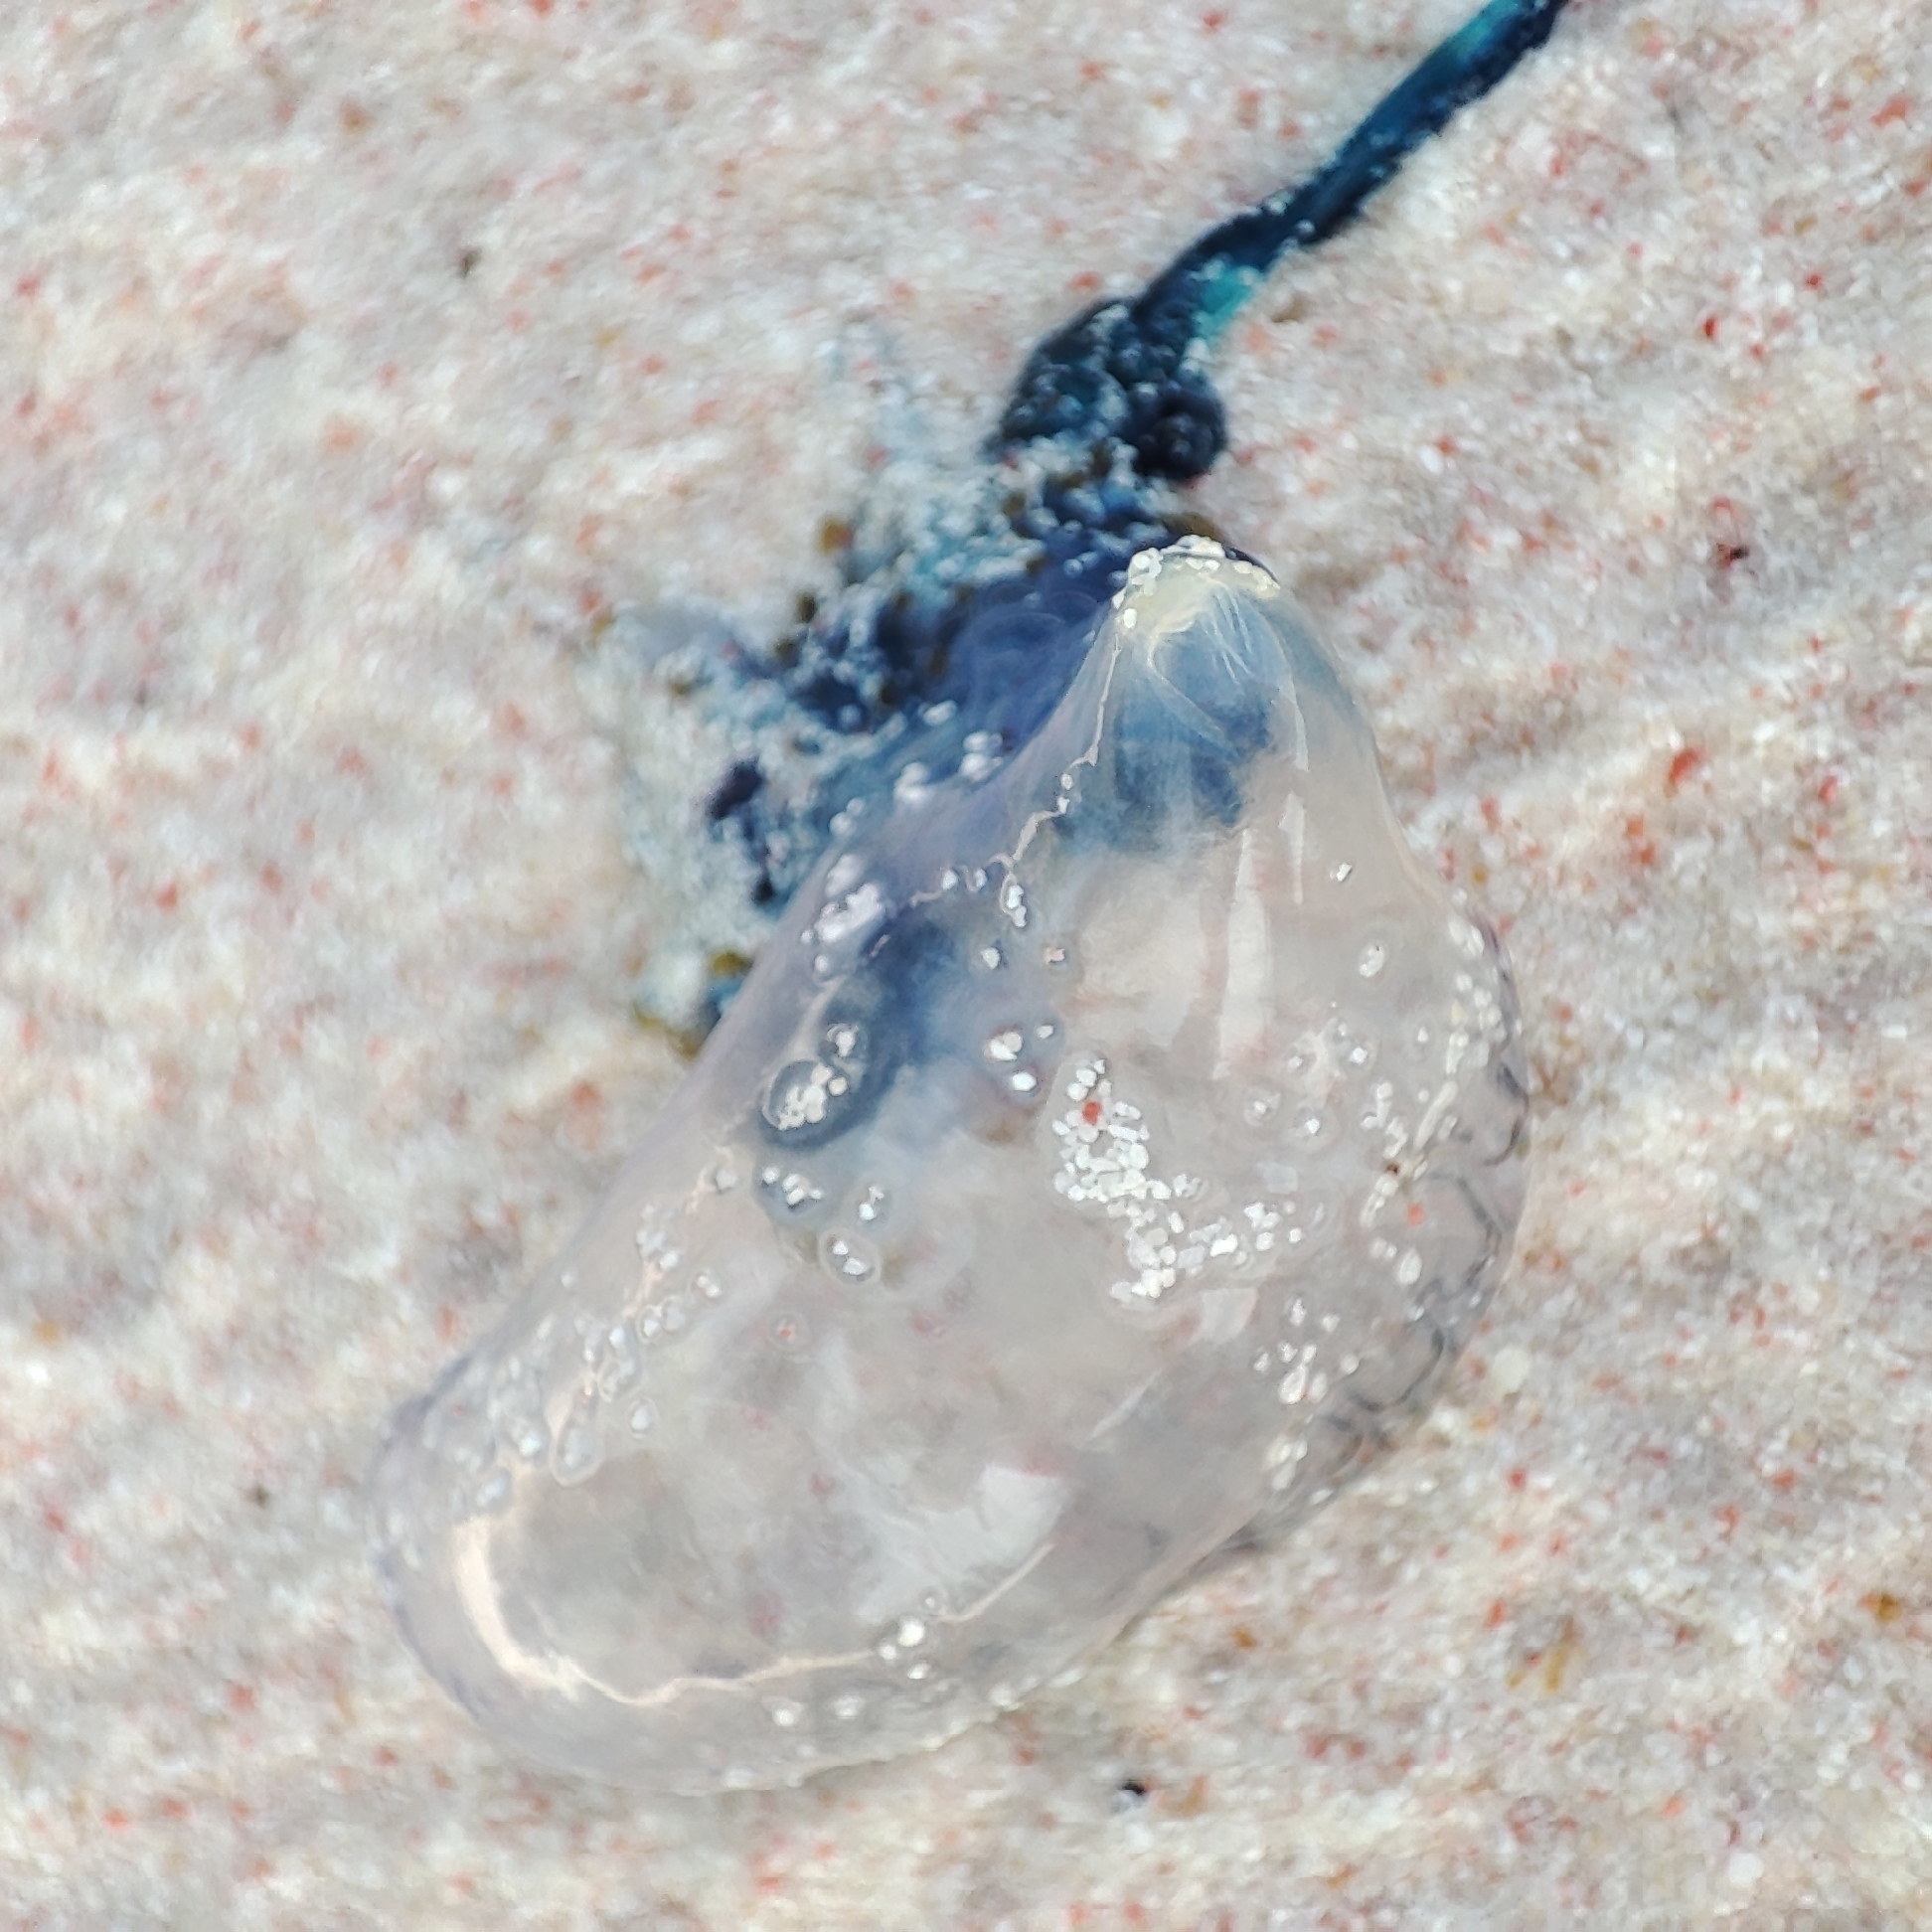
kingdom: Animalia
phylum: Cnidaria
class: Hydrozoa
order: Siphonophorae
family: Physaliidae
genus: Physalia
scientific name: Physalia physalis
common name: Portuguese man-of-war
